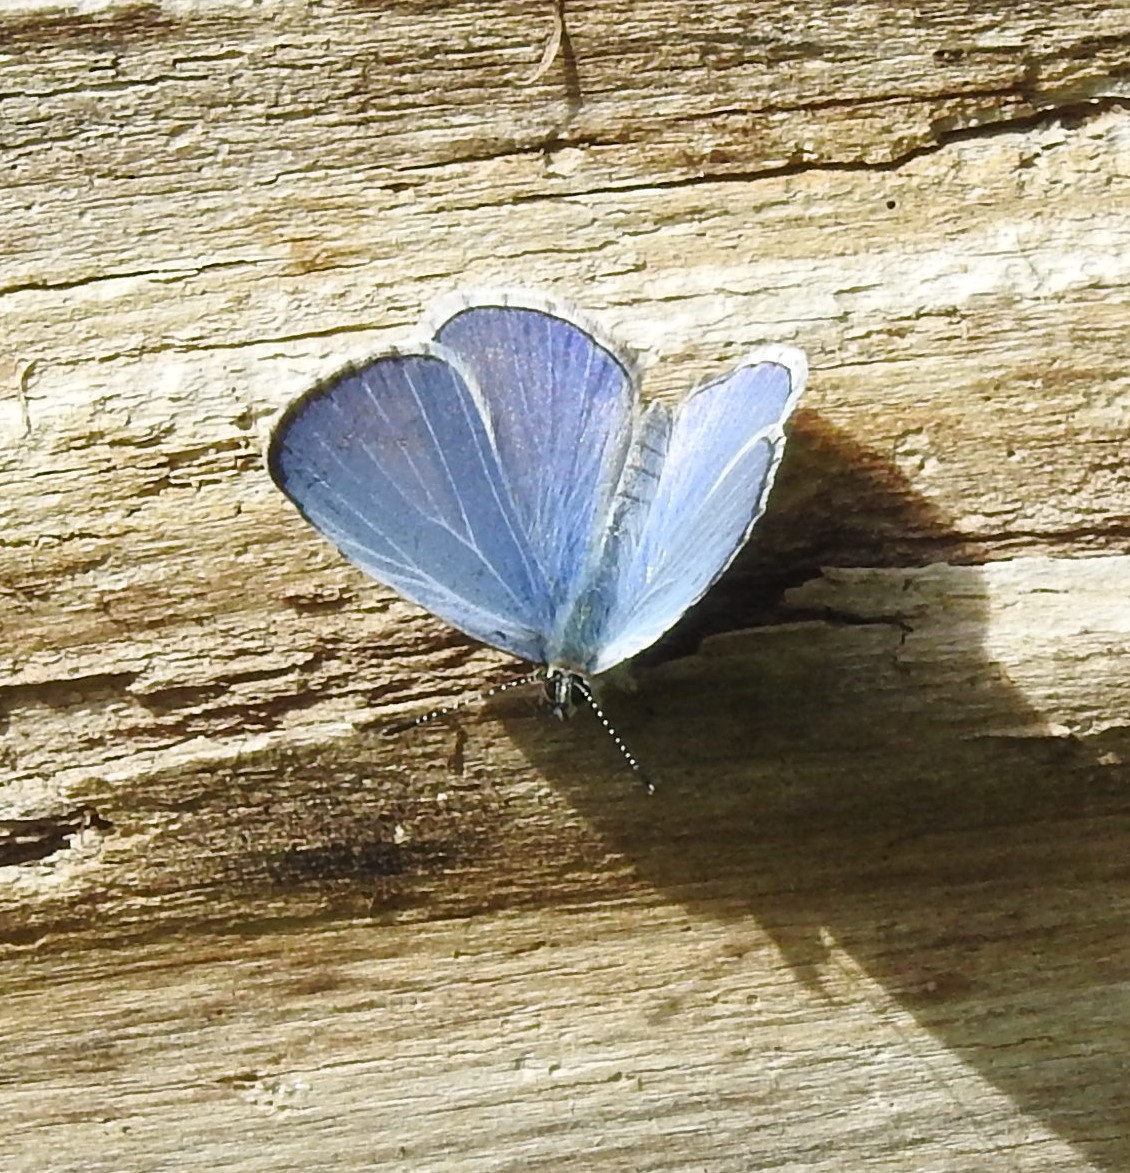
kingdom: Animalia
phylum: Arthropoda
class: Insecta
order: Lepidoptera
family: Lycaenidae
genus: Celastrina
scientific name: Celastrina ladon
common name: Spring azure
